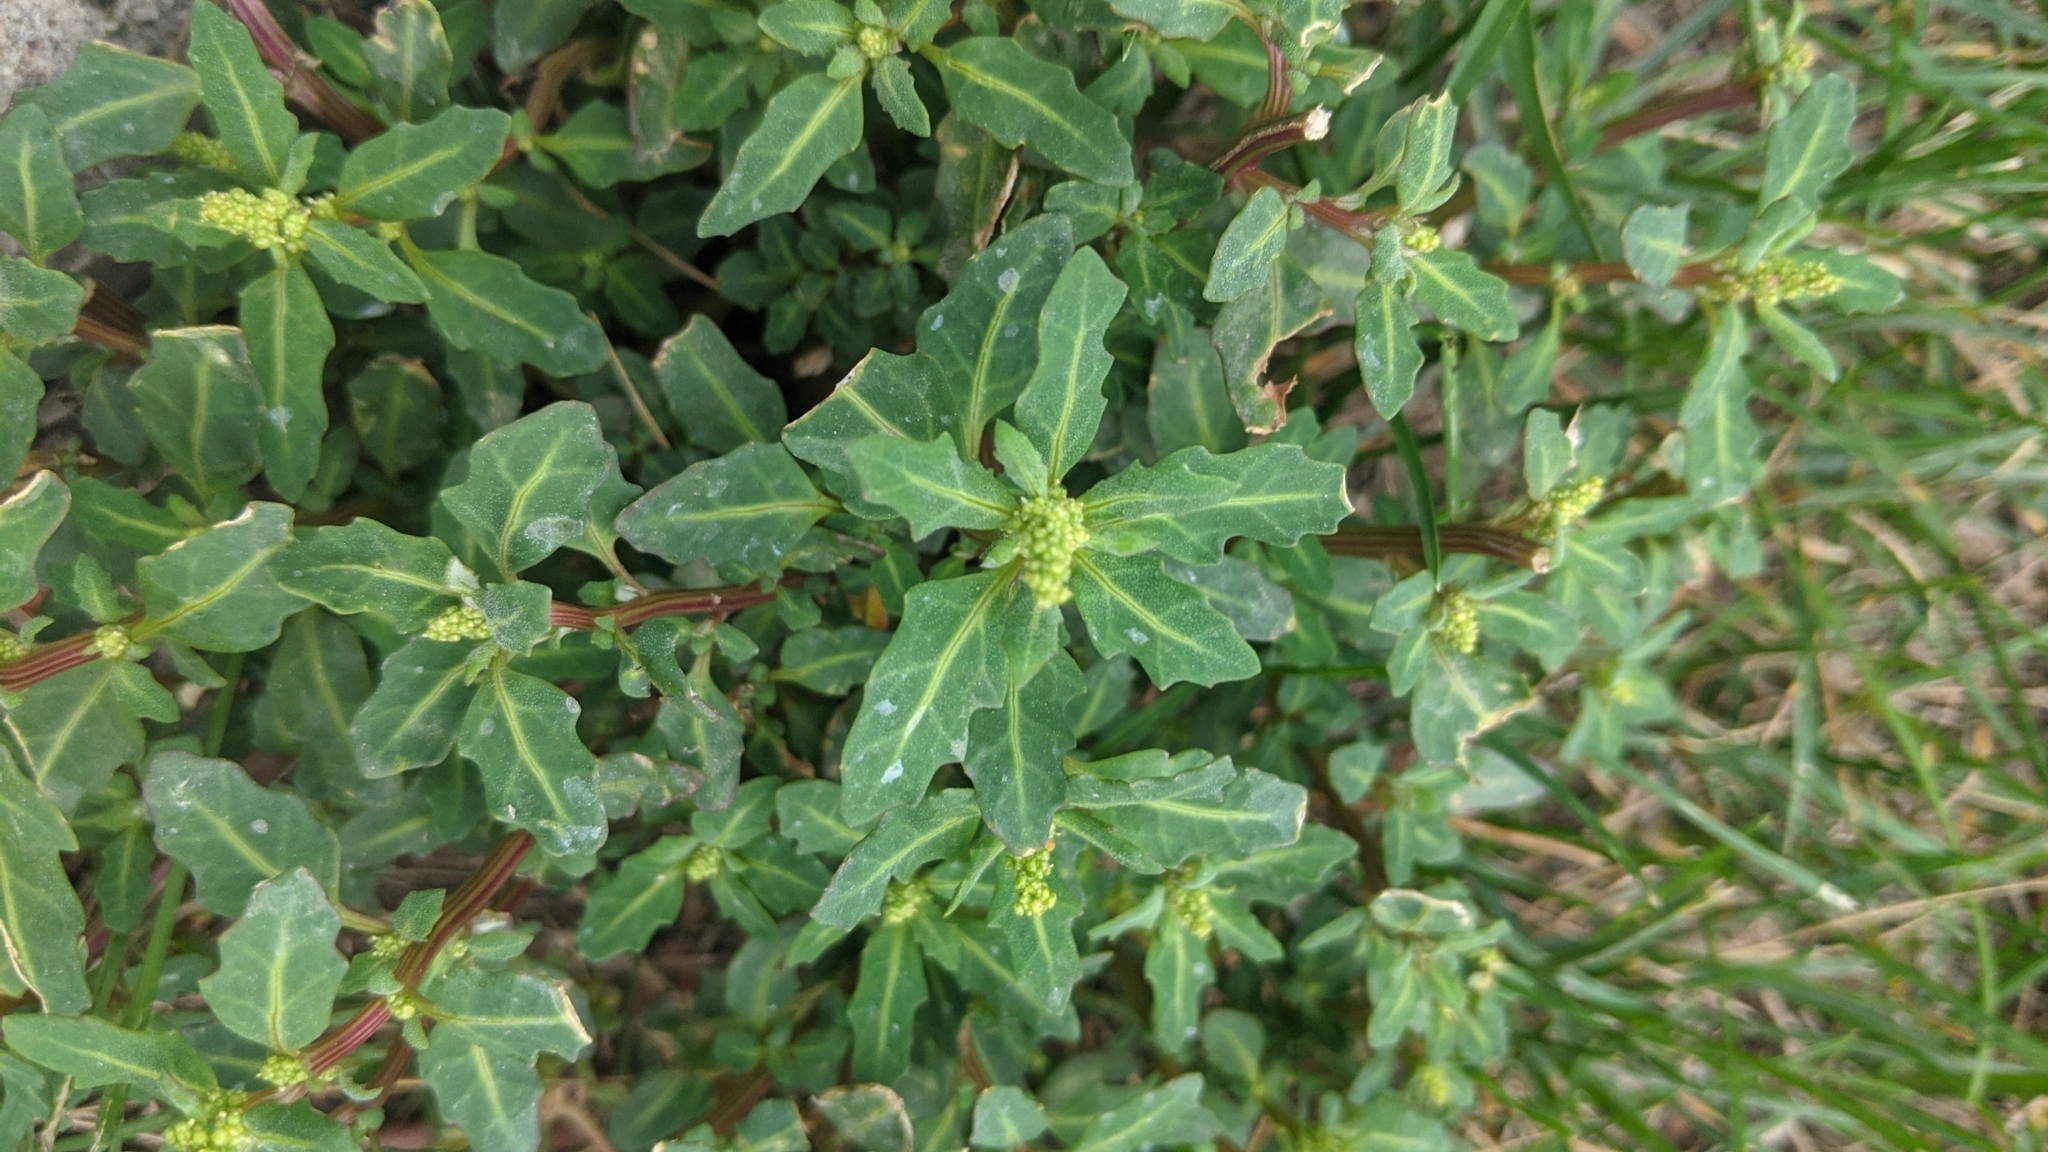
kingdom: Plantae
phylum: Tracheophyta
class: Magnoliopsida
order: Caryophyllales
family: Amaranthaceae
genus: Oxybasis
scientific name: Oxybasis glauca
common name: Glaucous goosefoot
